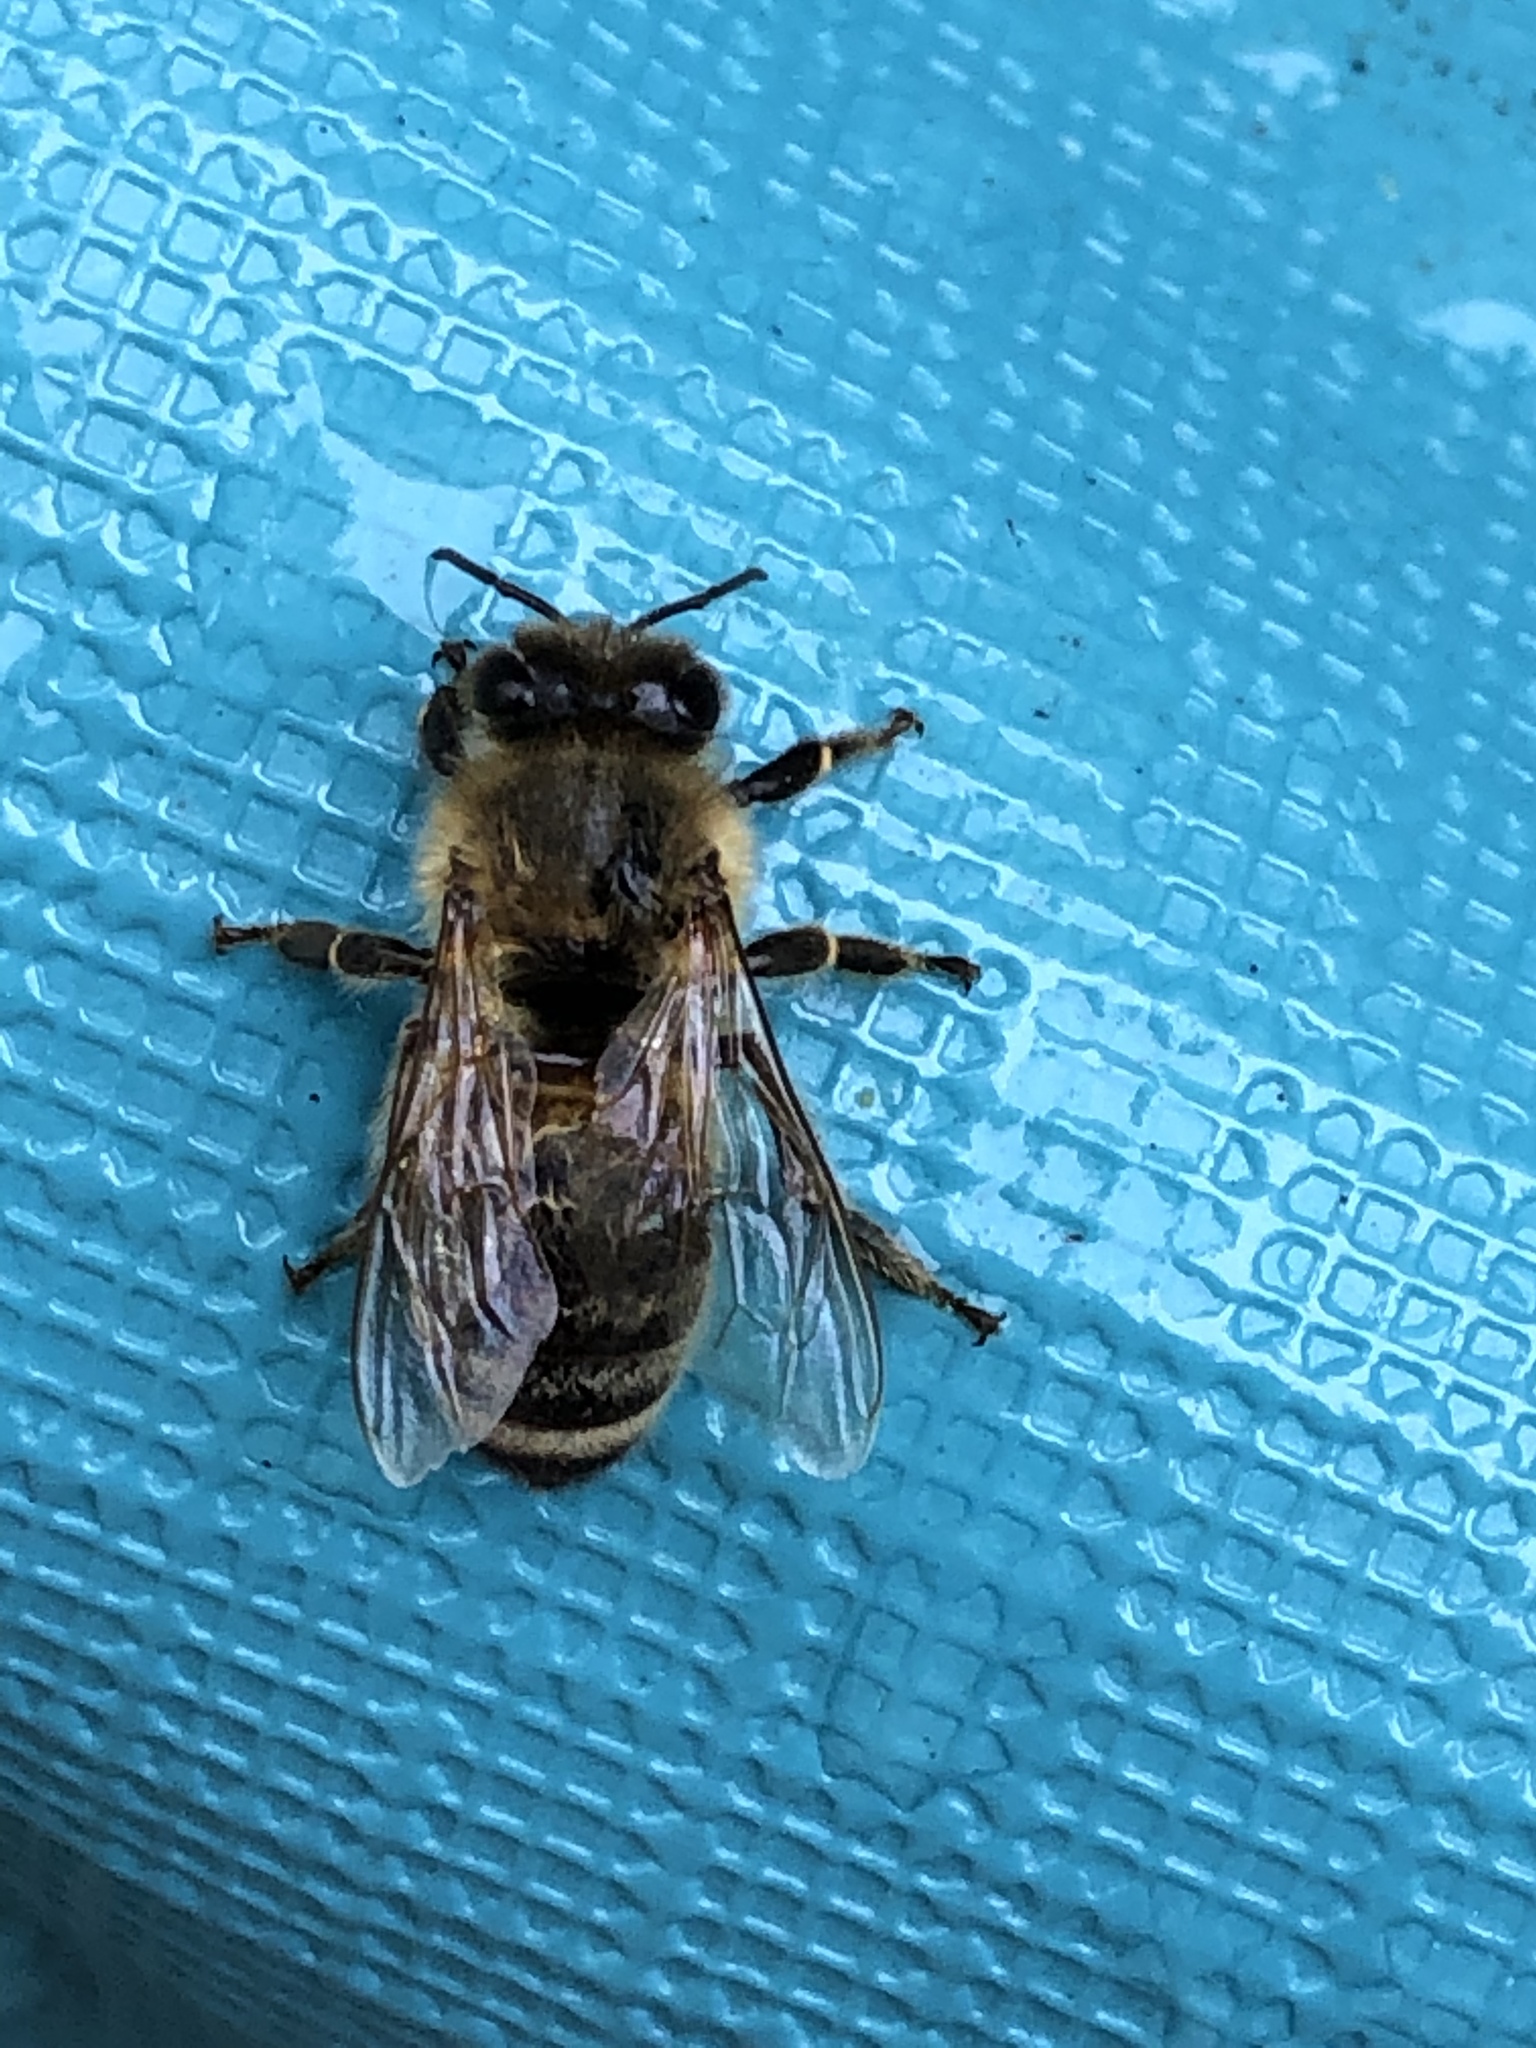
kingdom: Animalia
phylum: Arthropoda
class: Insecta
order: Hymenoptera
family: Apidae
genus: Apis
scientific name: Apis mellifera
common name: Honey bee
